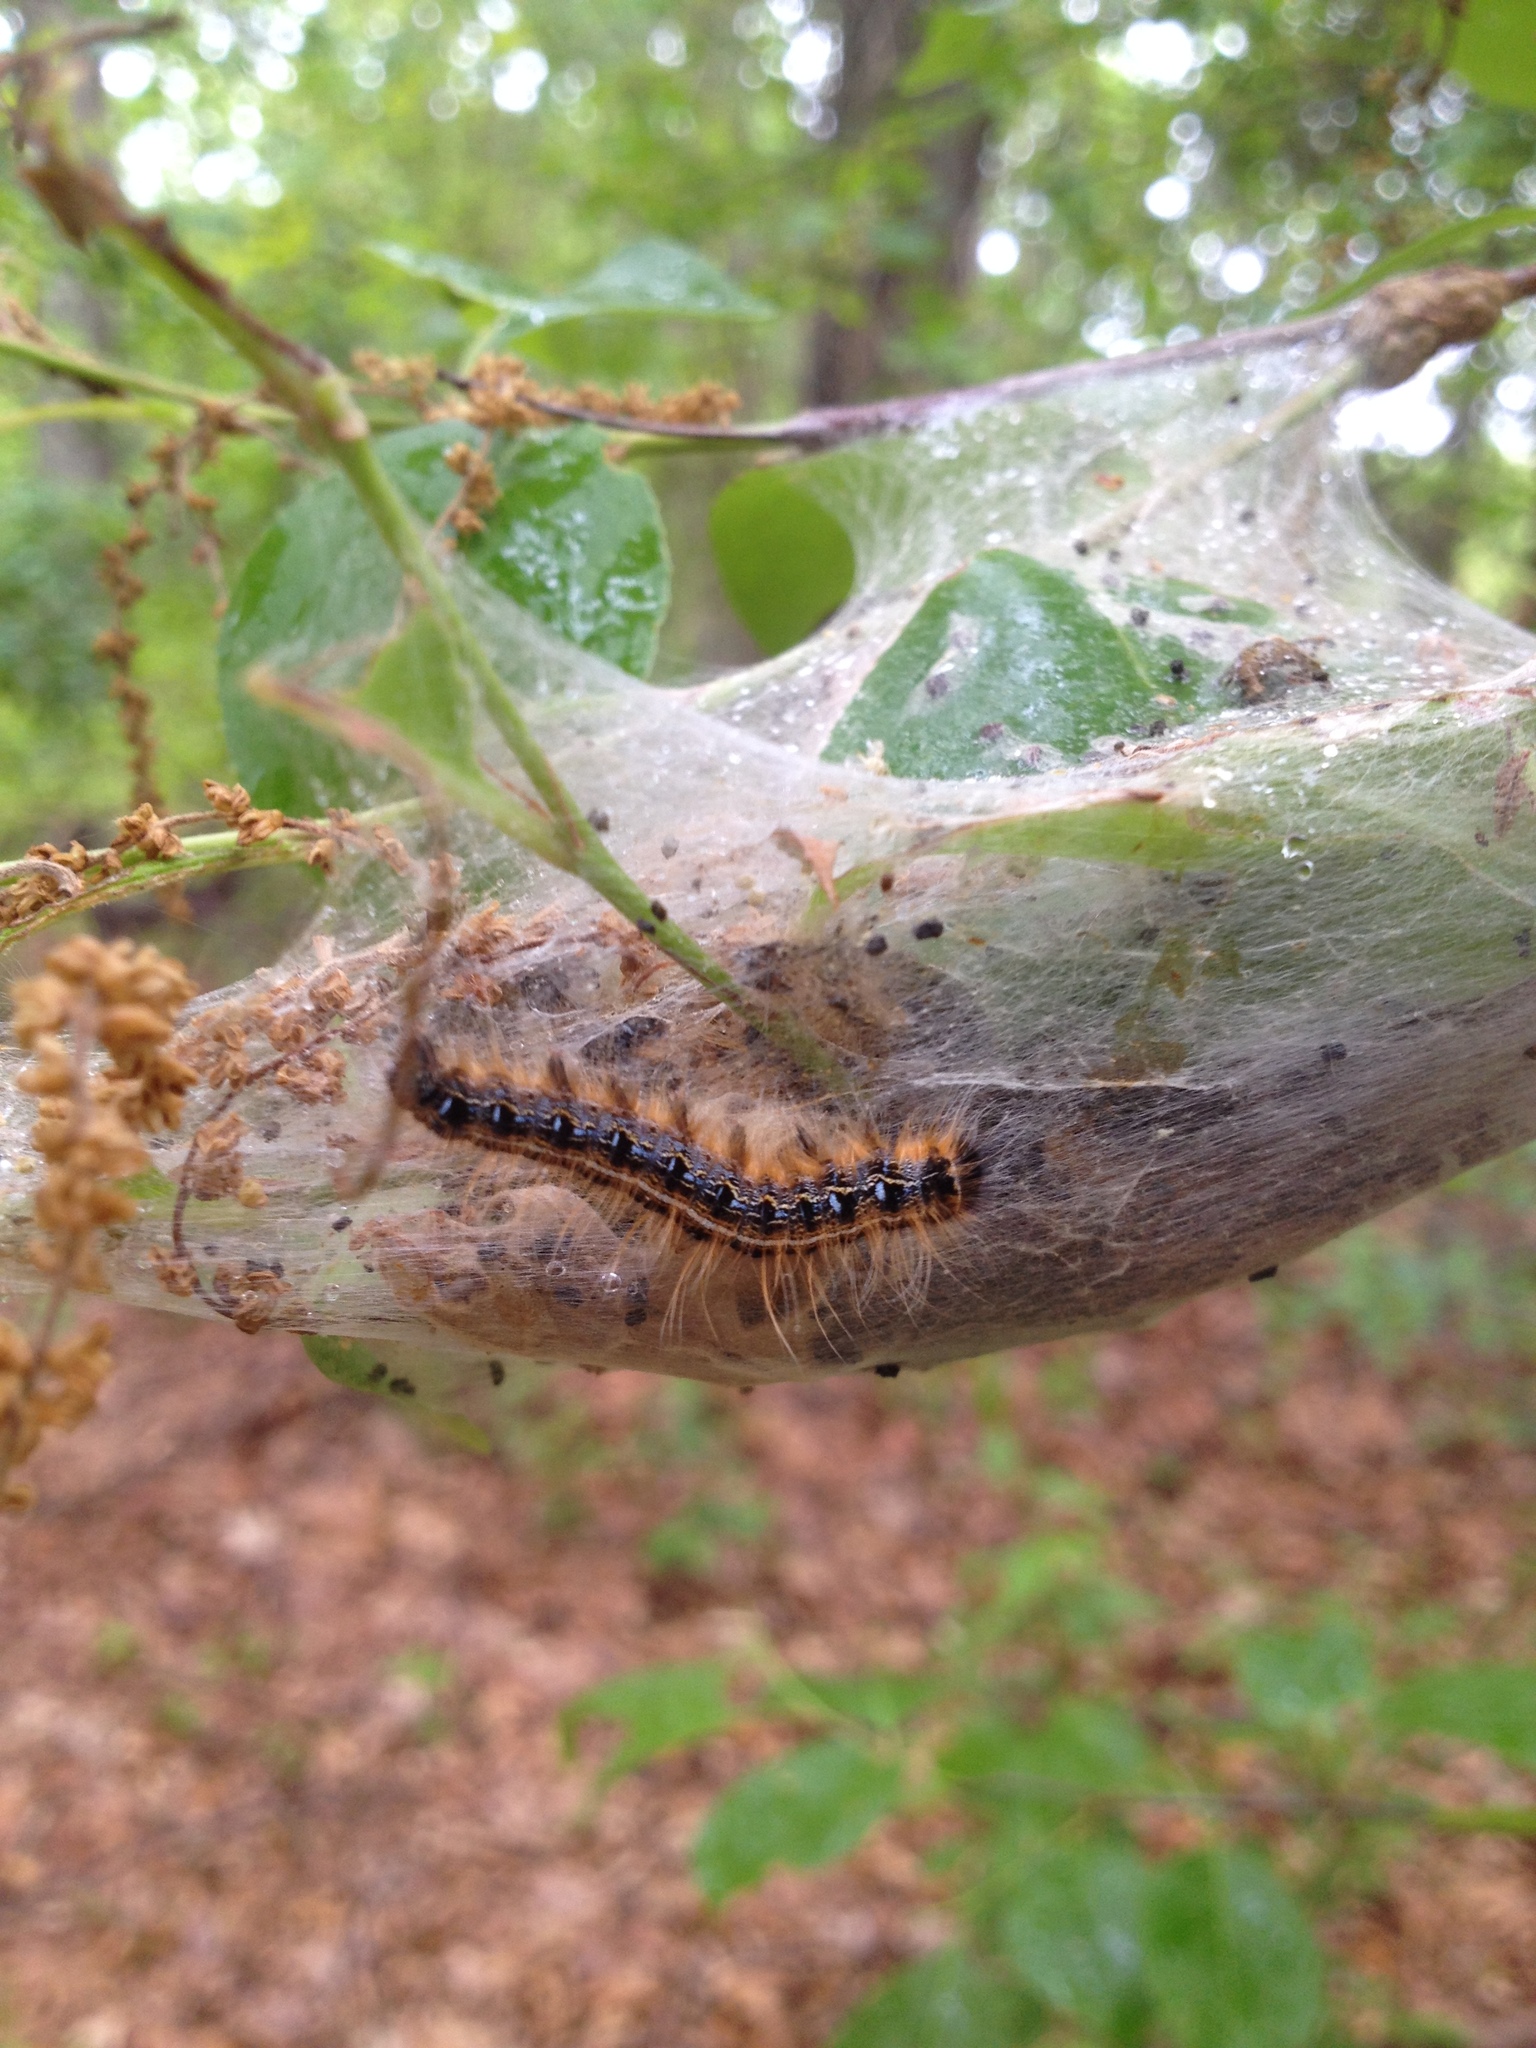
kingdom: Animalia
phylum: Arthropoda
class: Insecta
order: Lepidoptera
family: Lasiocampidae
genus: Malacosoma
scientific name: Malacosoma americana
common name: Eastern tent caterpillar moth
